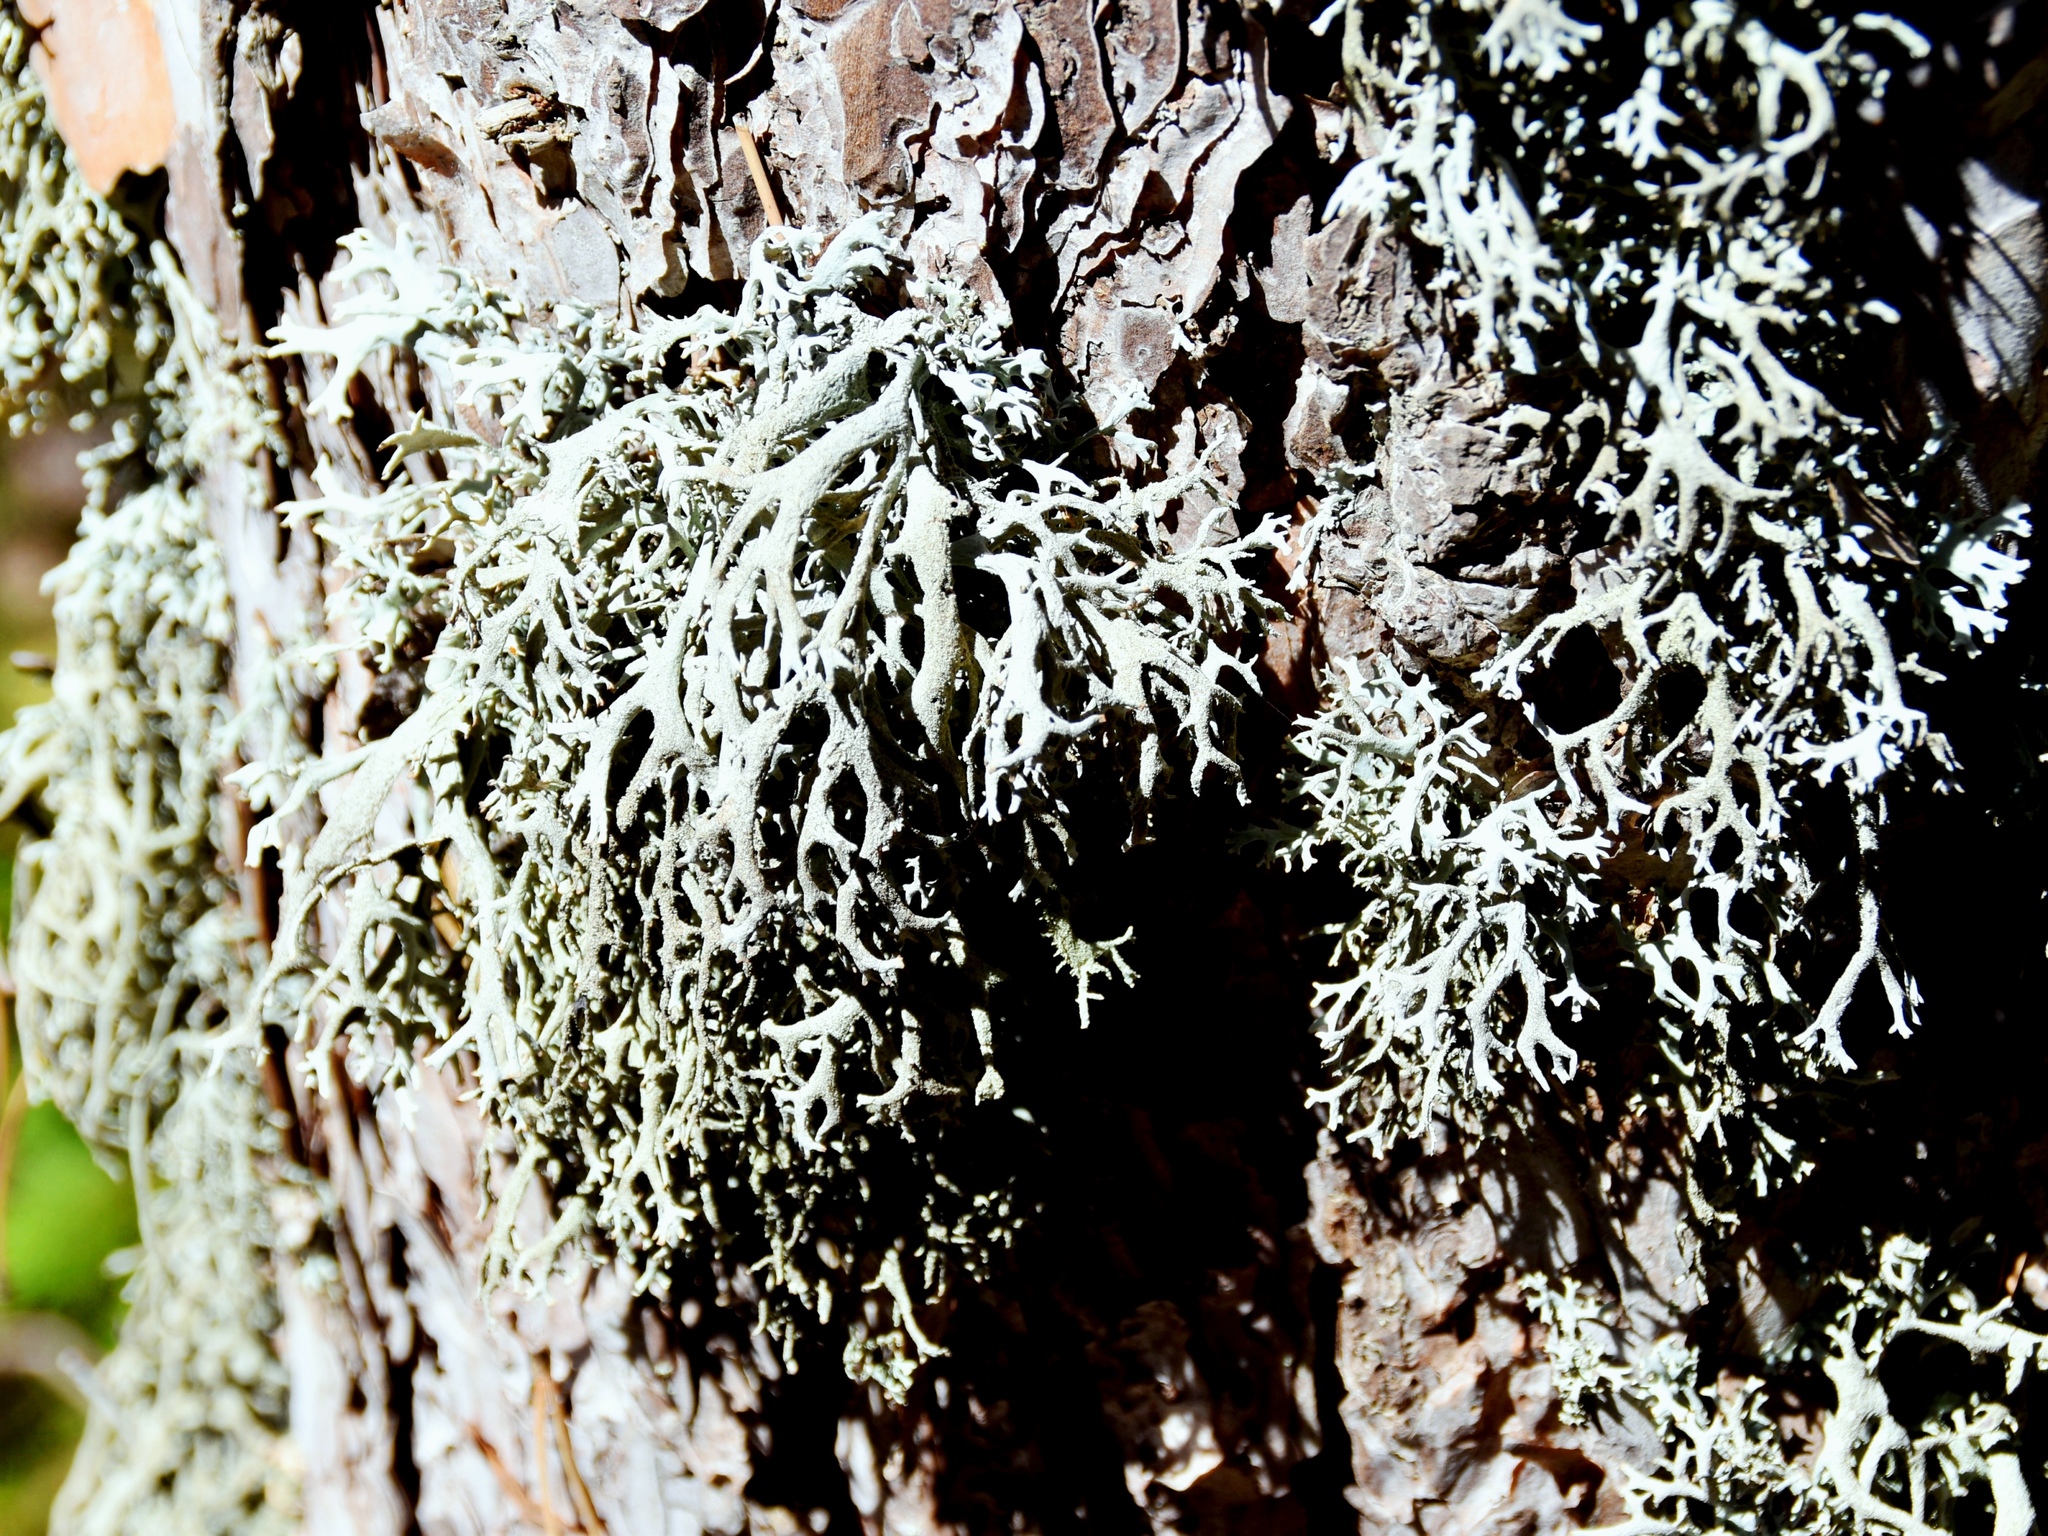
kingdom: Fungi
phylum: Ascomycota
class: Lecanoromycetes
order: Lecanorales
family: Parmeliaceae
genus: Pseudevernia
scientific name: Pseudevernia furfuracea
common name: Tree moss
